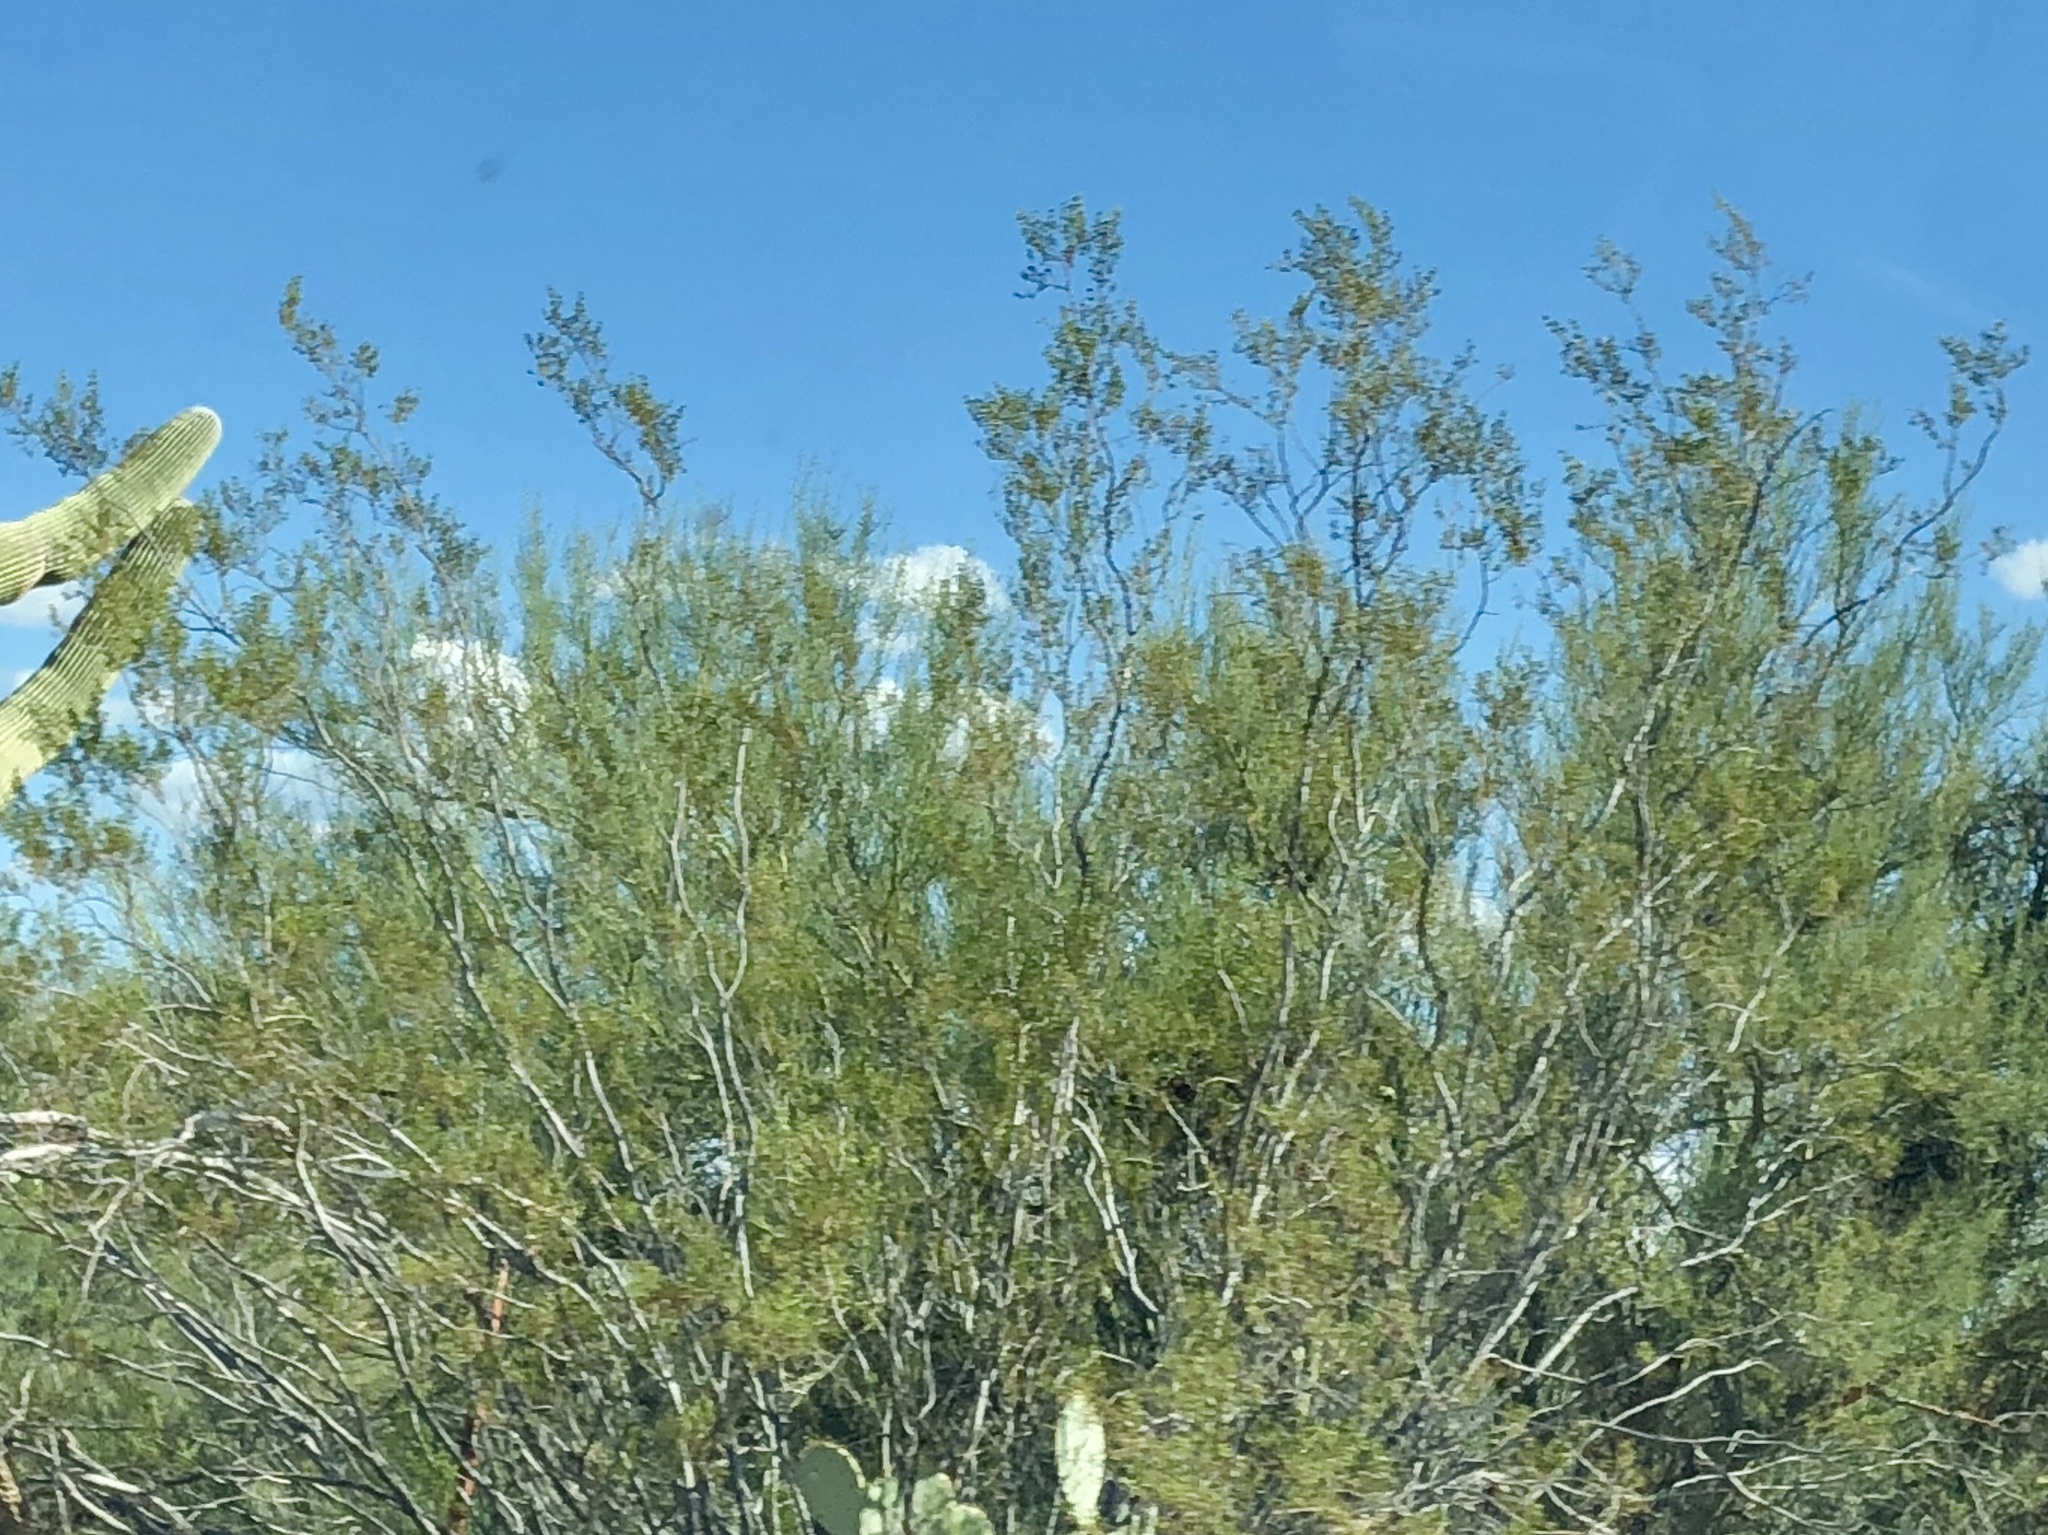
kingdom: Plantae
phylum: Tracheophyta
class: Magnoliopsida
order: Zygophyllales
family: Zygophyllaceae
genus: Larrea
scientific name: Larrea tridentata
